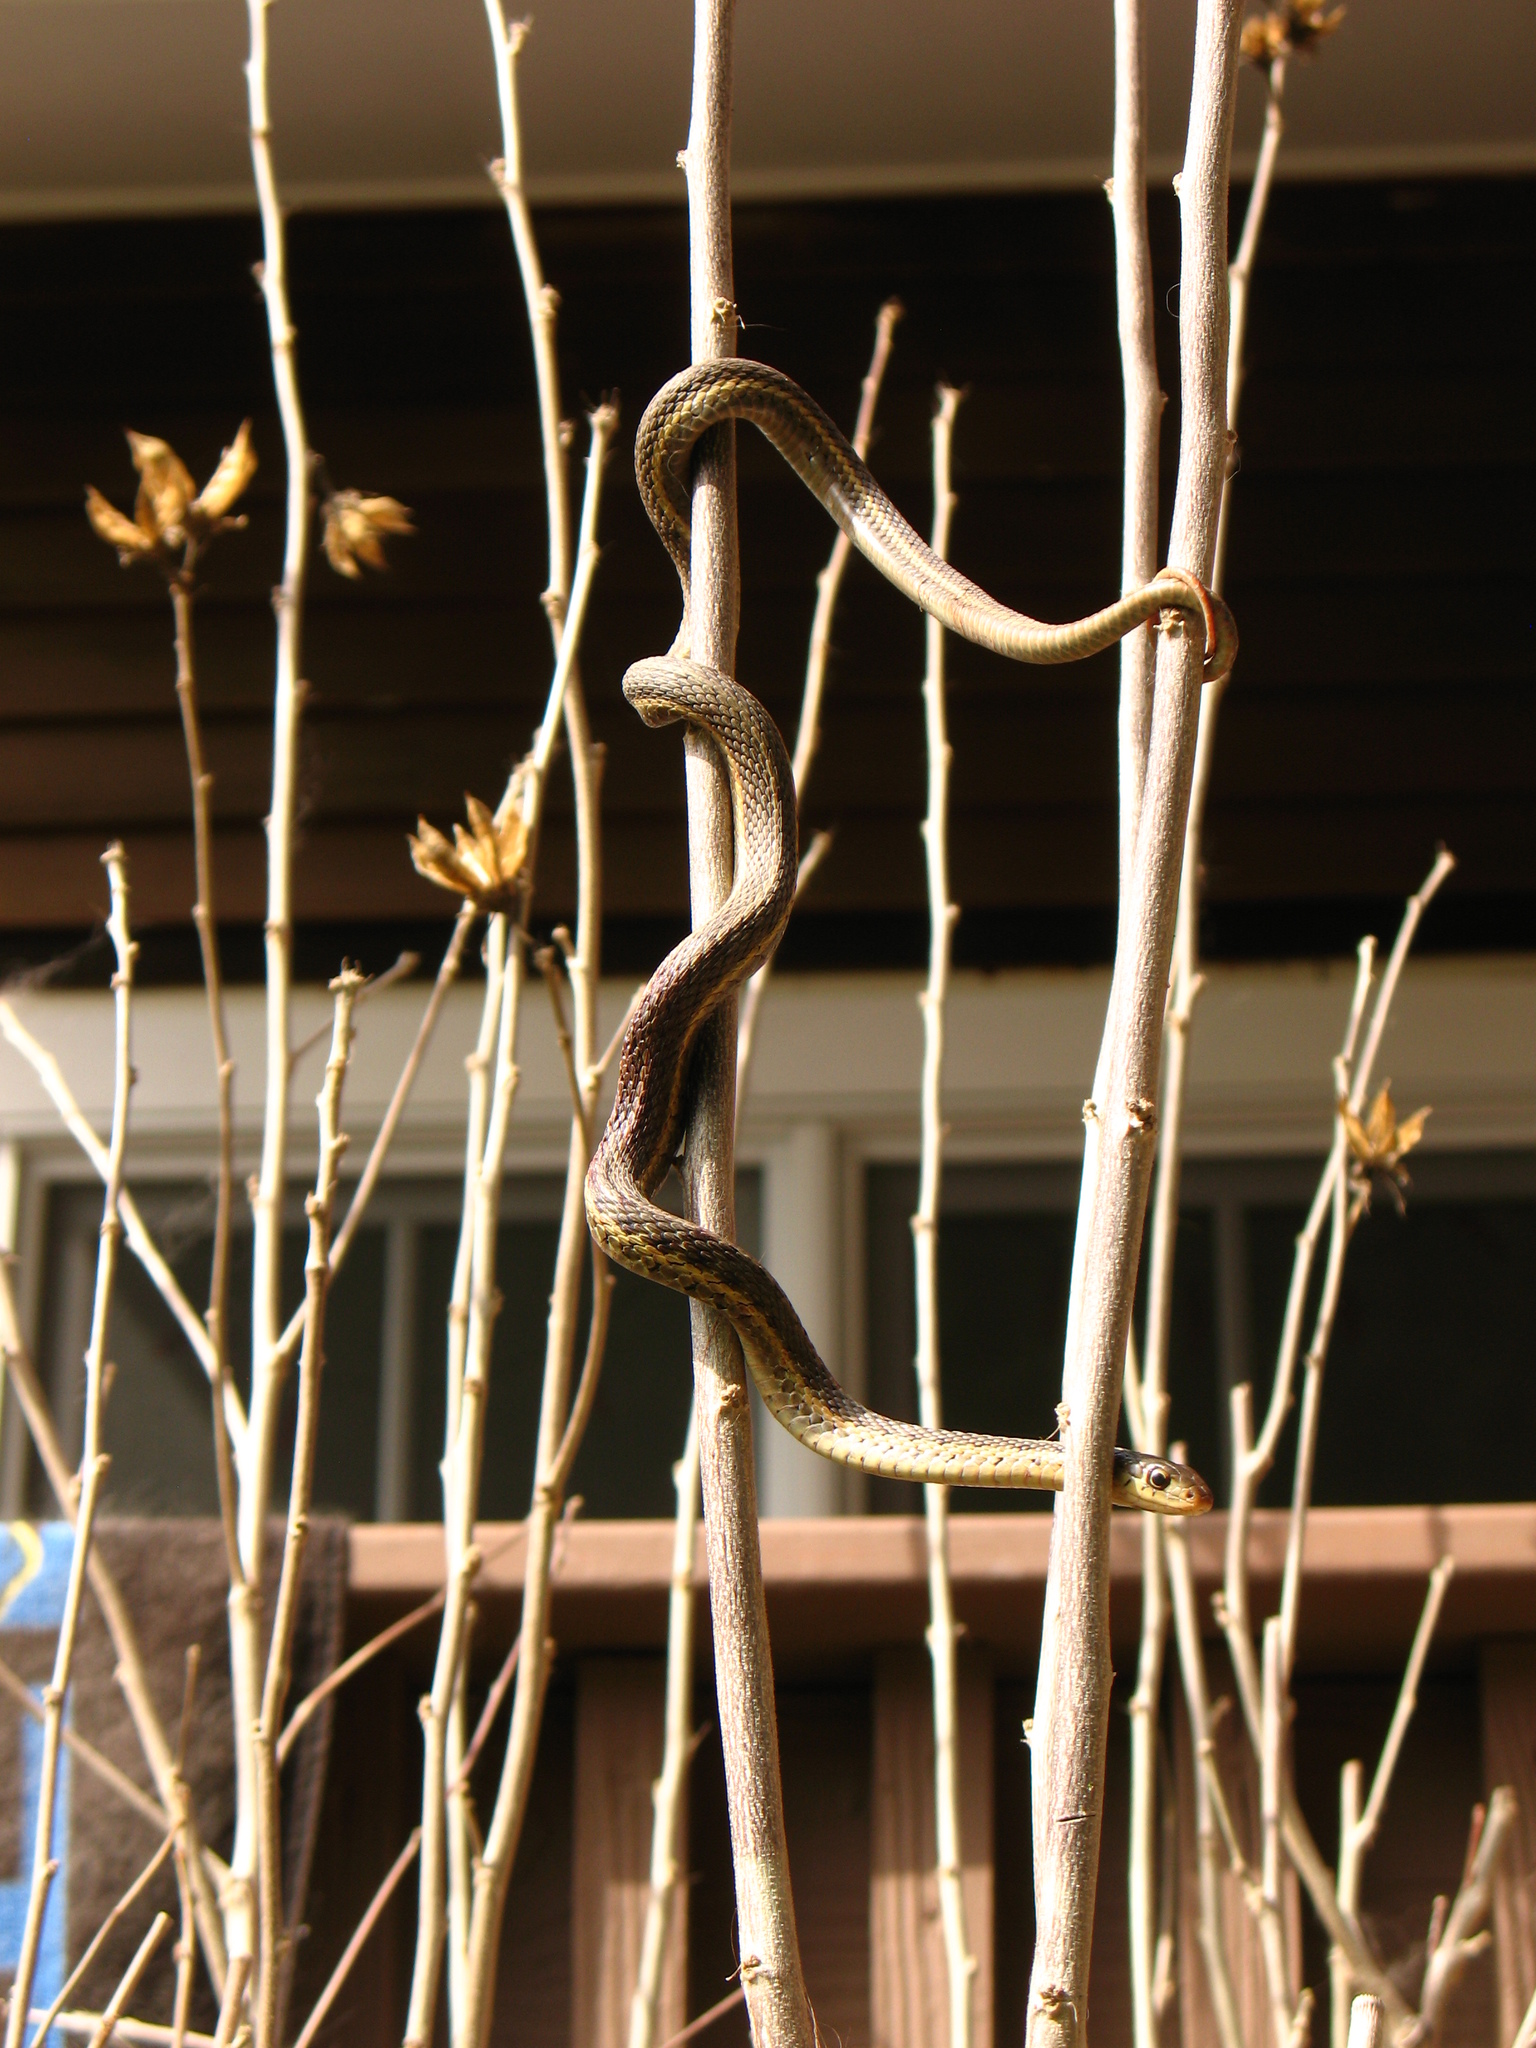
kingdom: Animalia
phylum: Chordata
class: Squamata
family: Colubridae
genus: Thamnophis
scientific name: Thamnophis sirtalis
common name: Common garter snake
